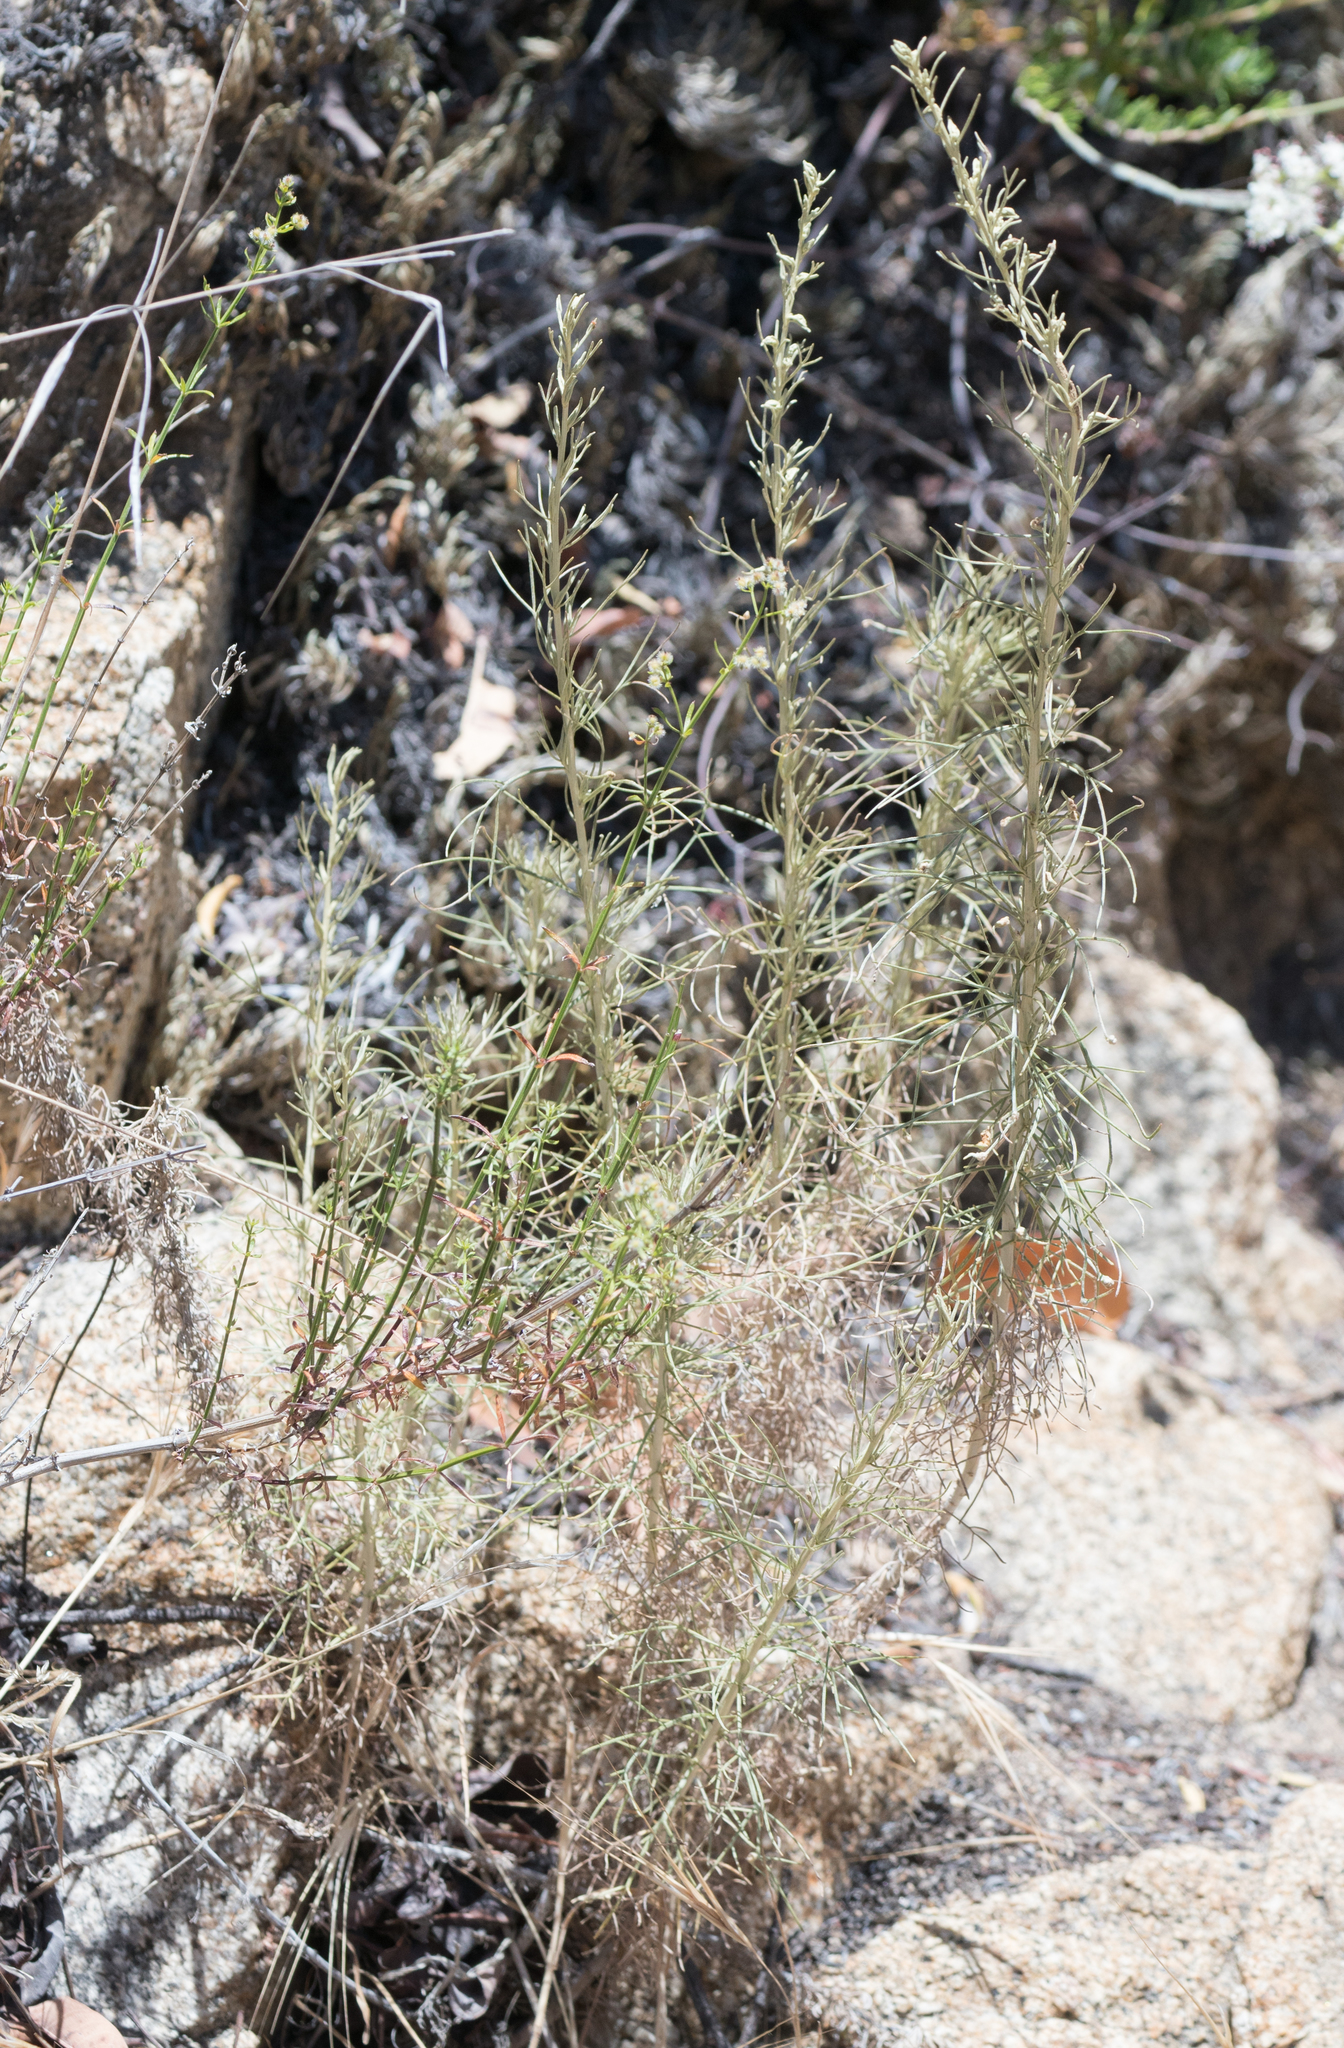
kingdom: Plantae
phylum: Tracheophyta
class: Magnoliopsida
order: Asterales
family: Asteraceae
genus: Artemisia
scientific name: Artemisia californica
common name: California sagebrush
